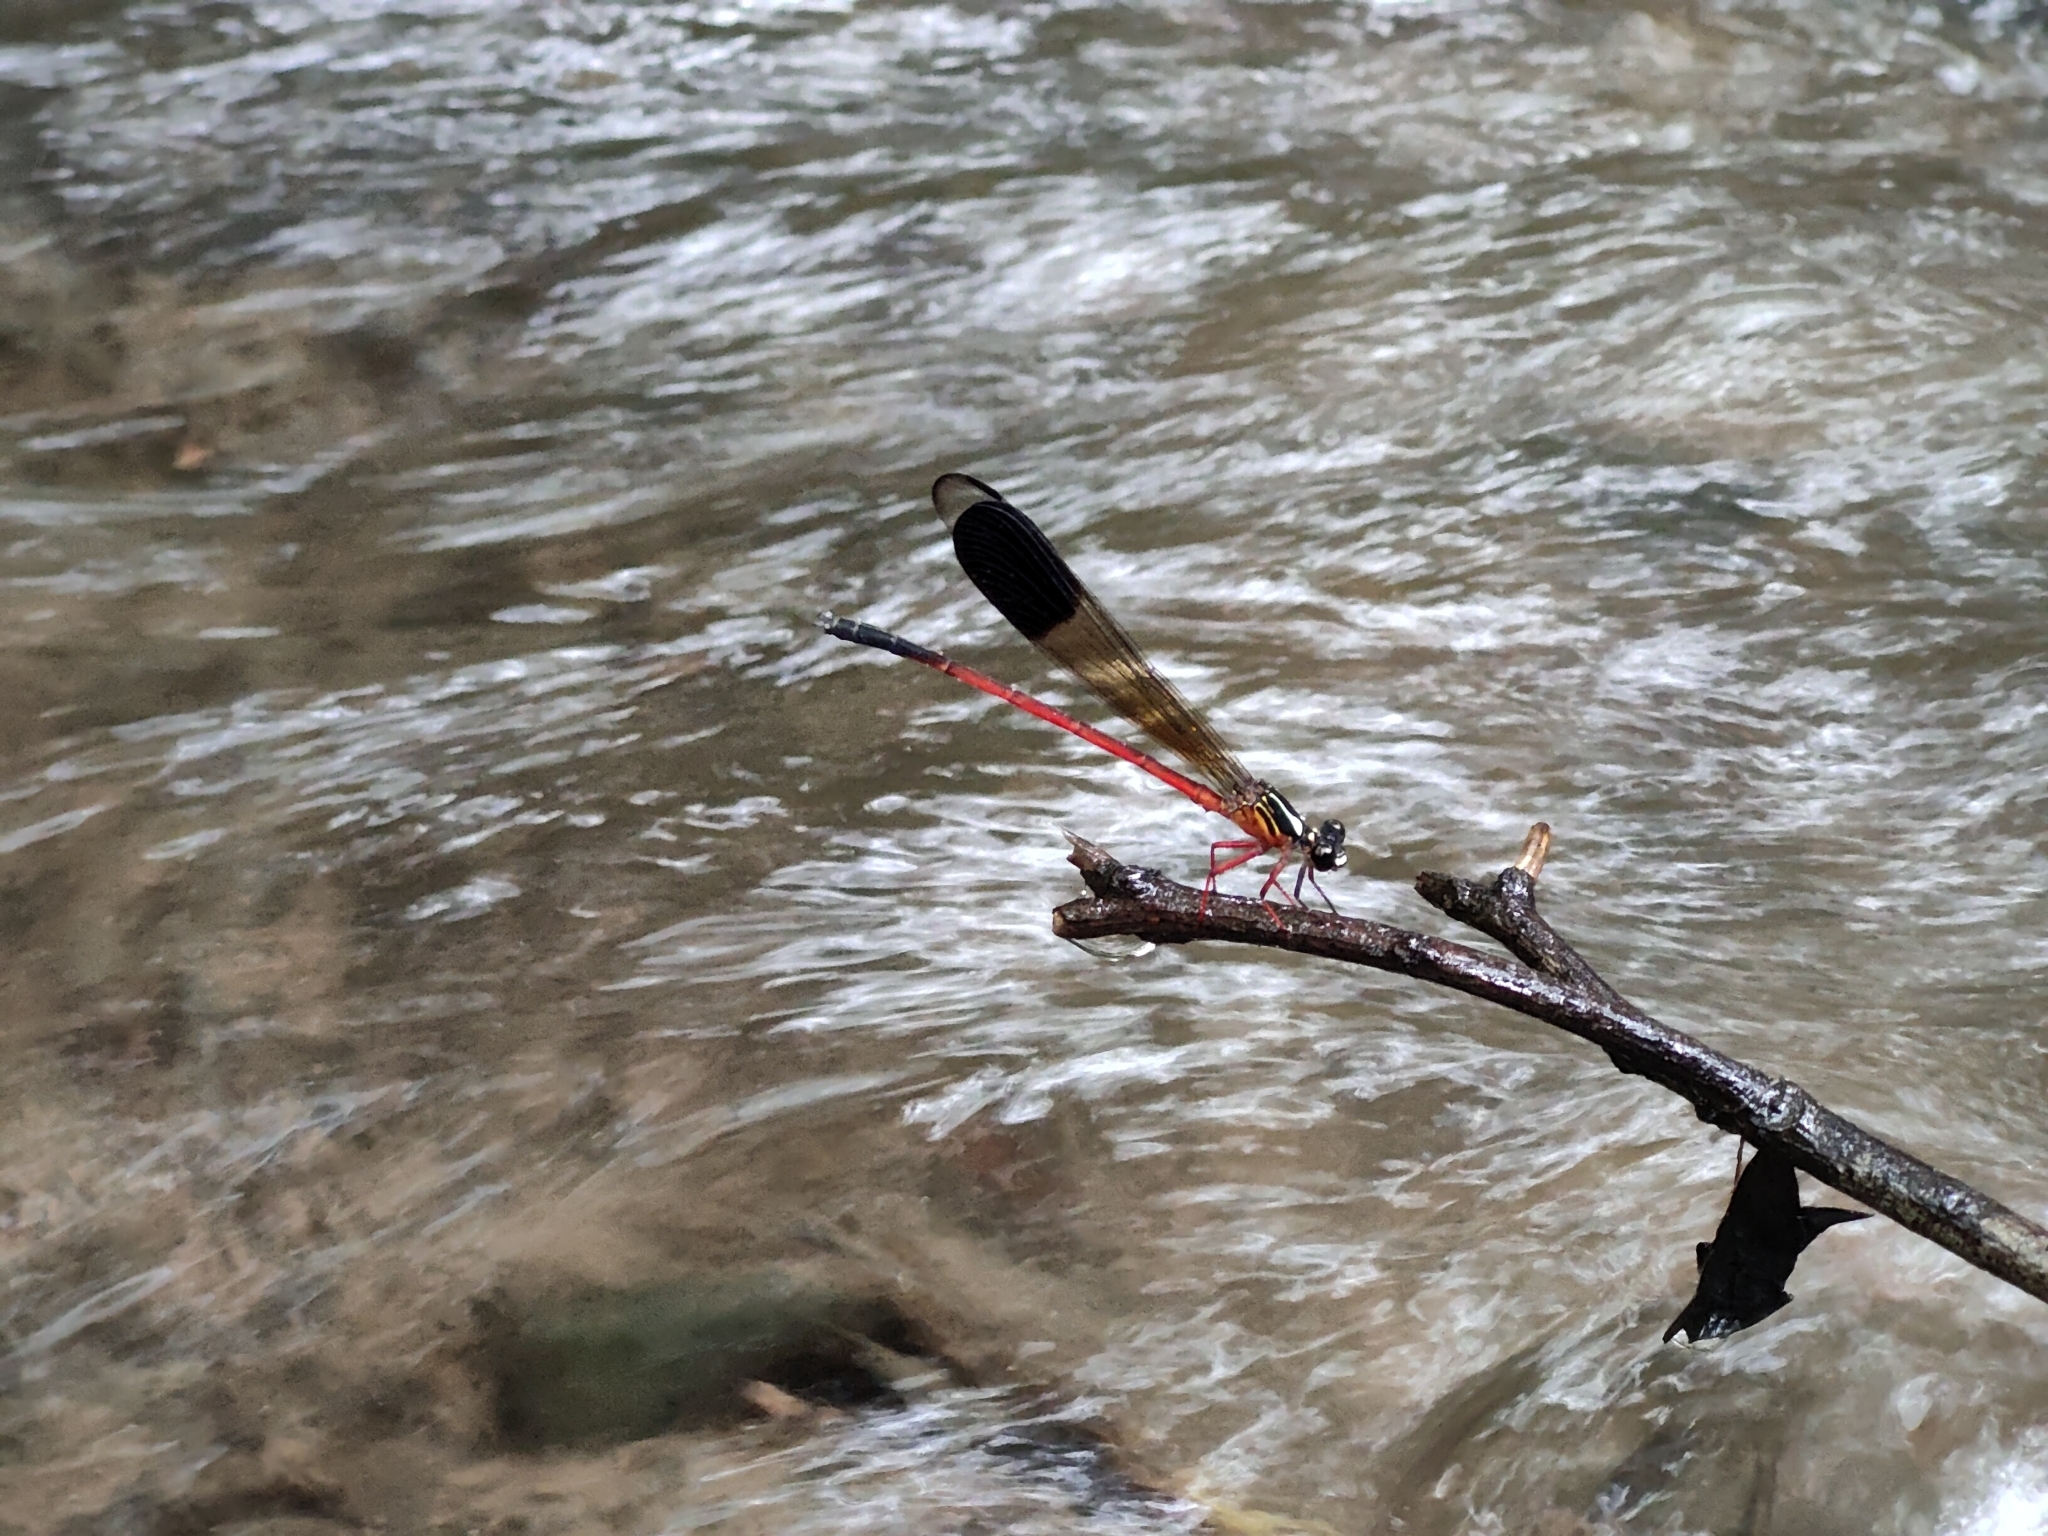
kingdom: Animalia
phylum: Arthropoda
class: Insecta
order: Odonata
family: Euphaeidae
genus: Euphaea
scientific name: Euphaea fraseri
